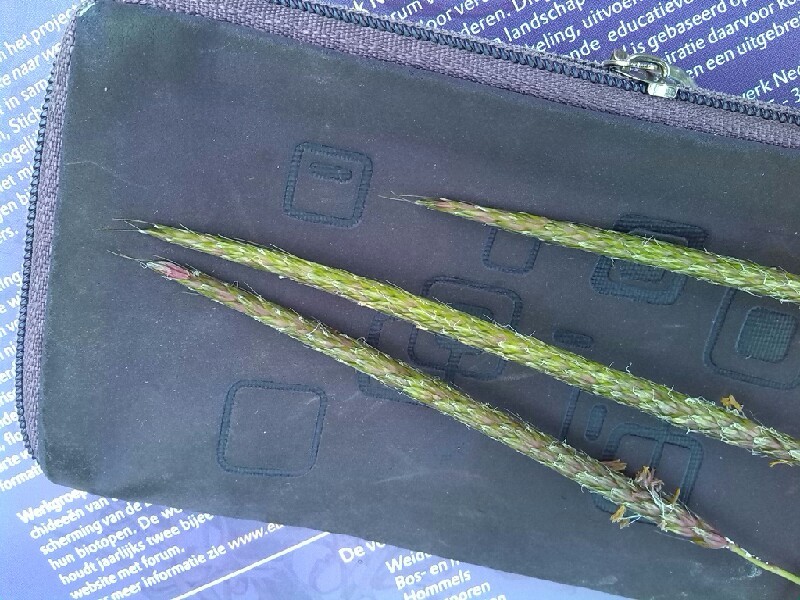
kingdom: Plantae
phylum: Tracheophyta
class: Liliopsida
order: Poales
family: Poaceae
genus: Alopecurus
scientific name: Alopecurus myosuroides
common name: Black-grass
